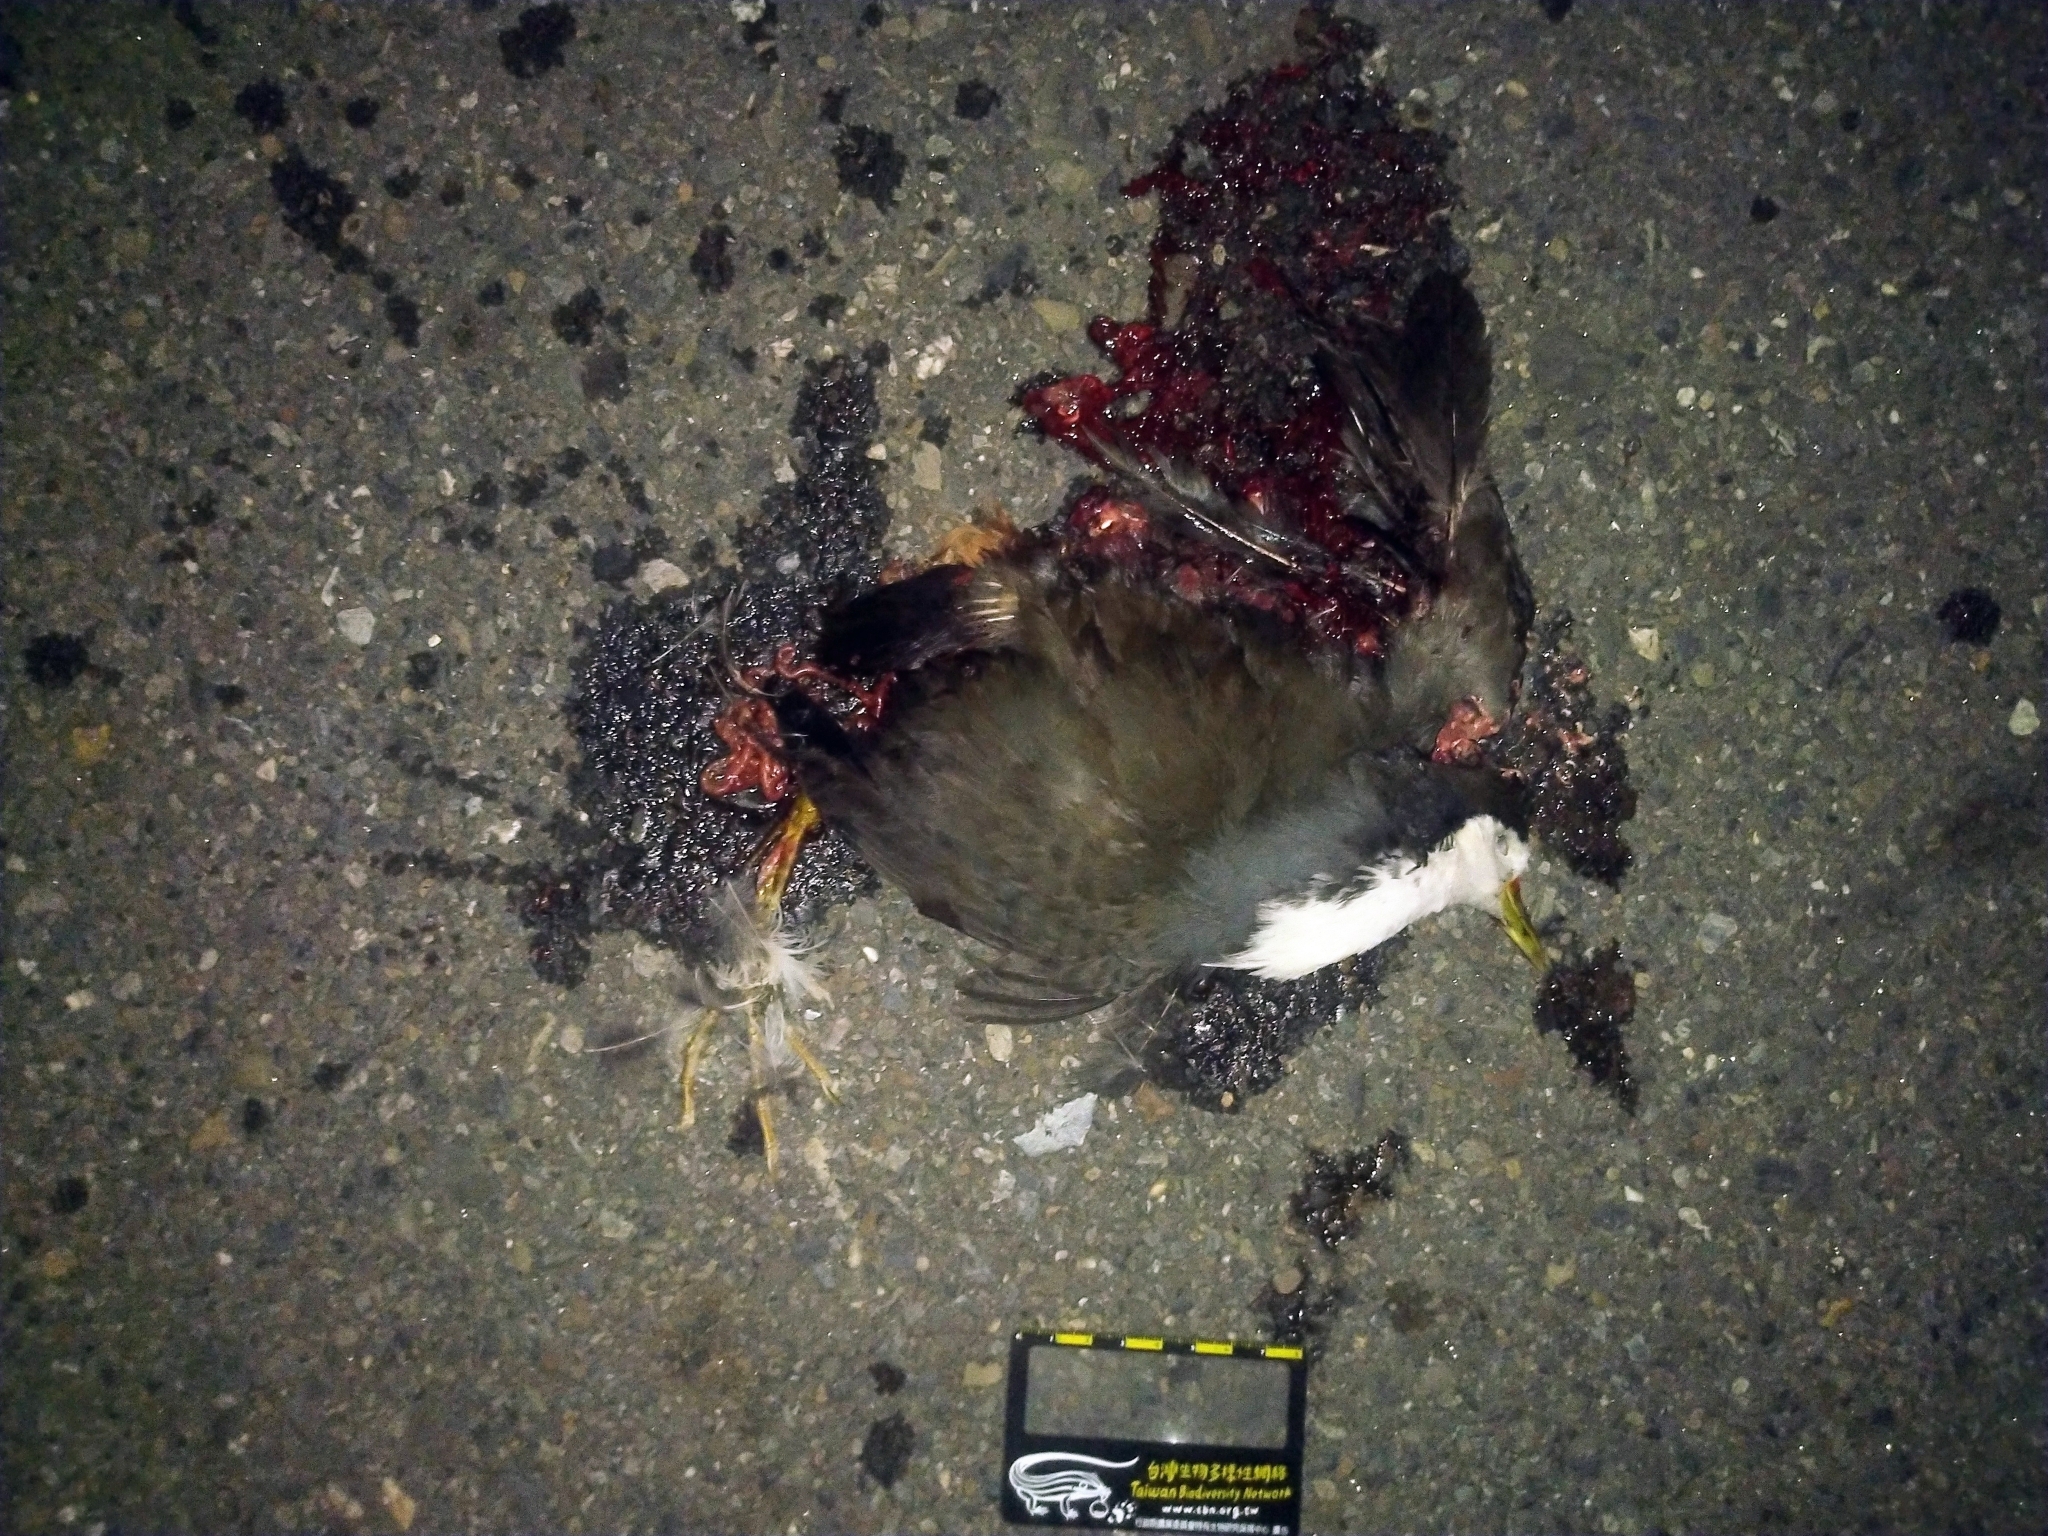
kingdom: Animalia
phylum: Chordata
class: Aves
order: Gruiformes
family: Rallidae
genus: Amaurornis
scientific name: Amaurornis phoenicurus
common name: White-breasted waterhen
